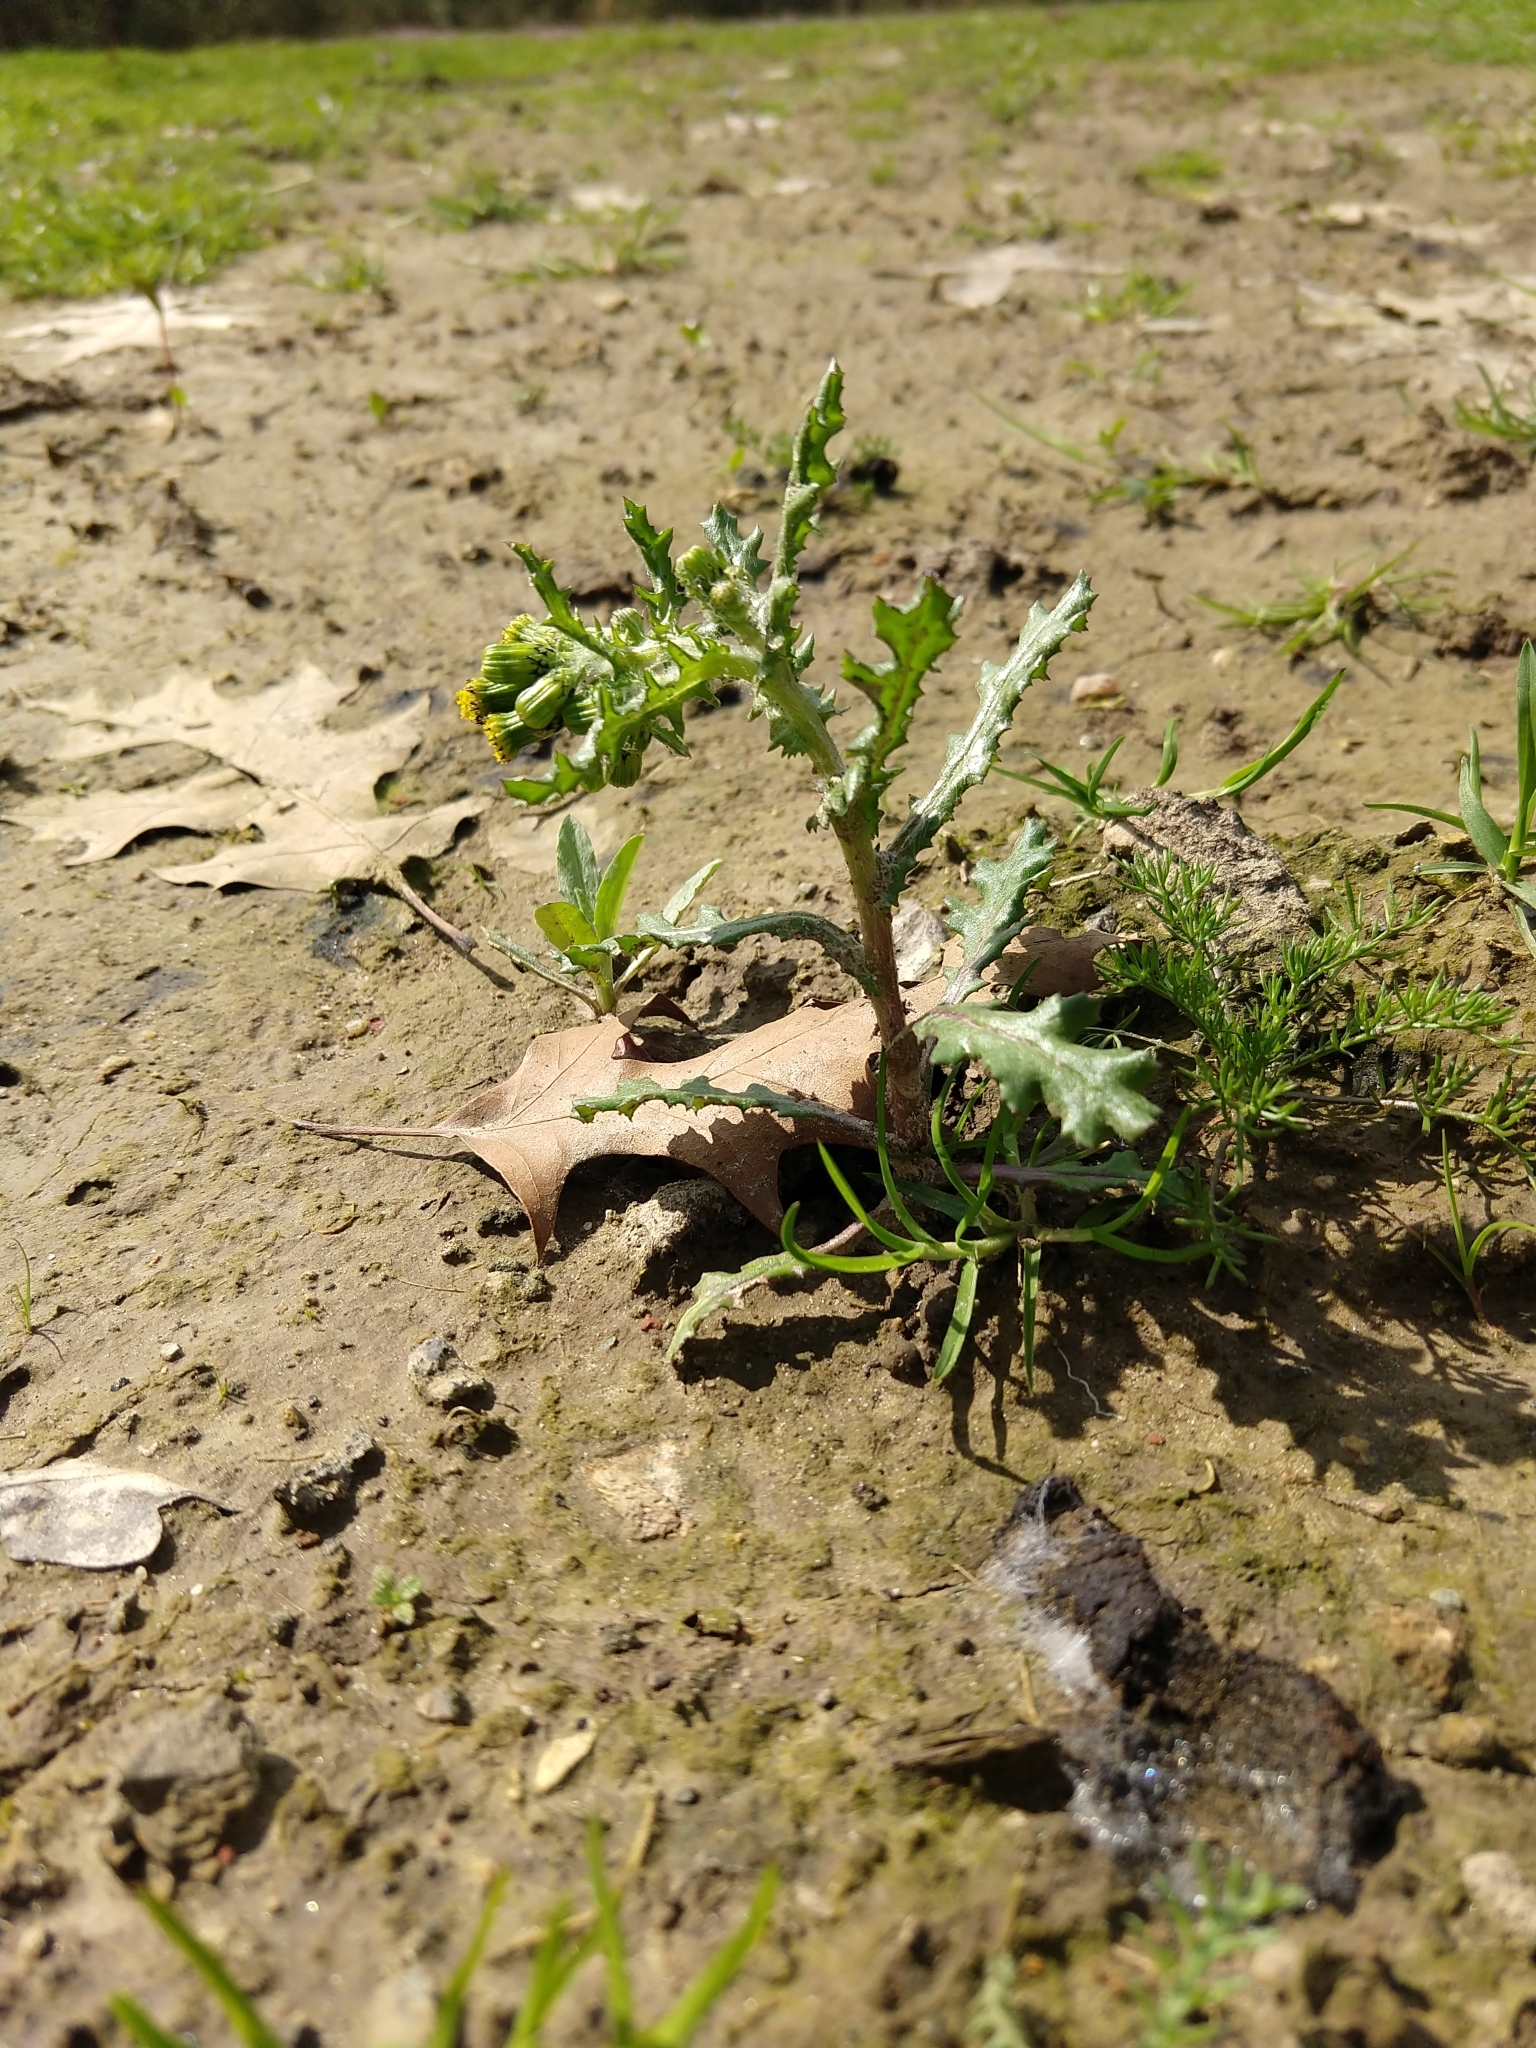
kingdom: Plantae
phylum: Tracheophyta
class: Magnoliopsida
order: Asterales
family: Asteraceae
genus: Senecio
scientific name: Senecio vulgaris
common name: Old-man-in-the-spring
